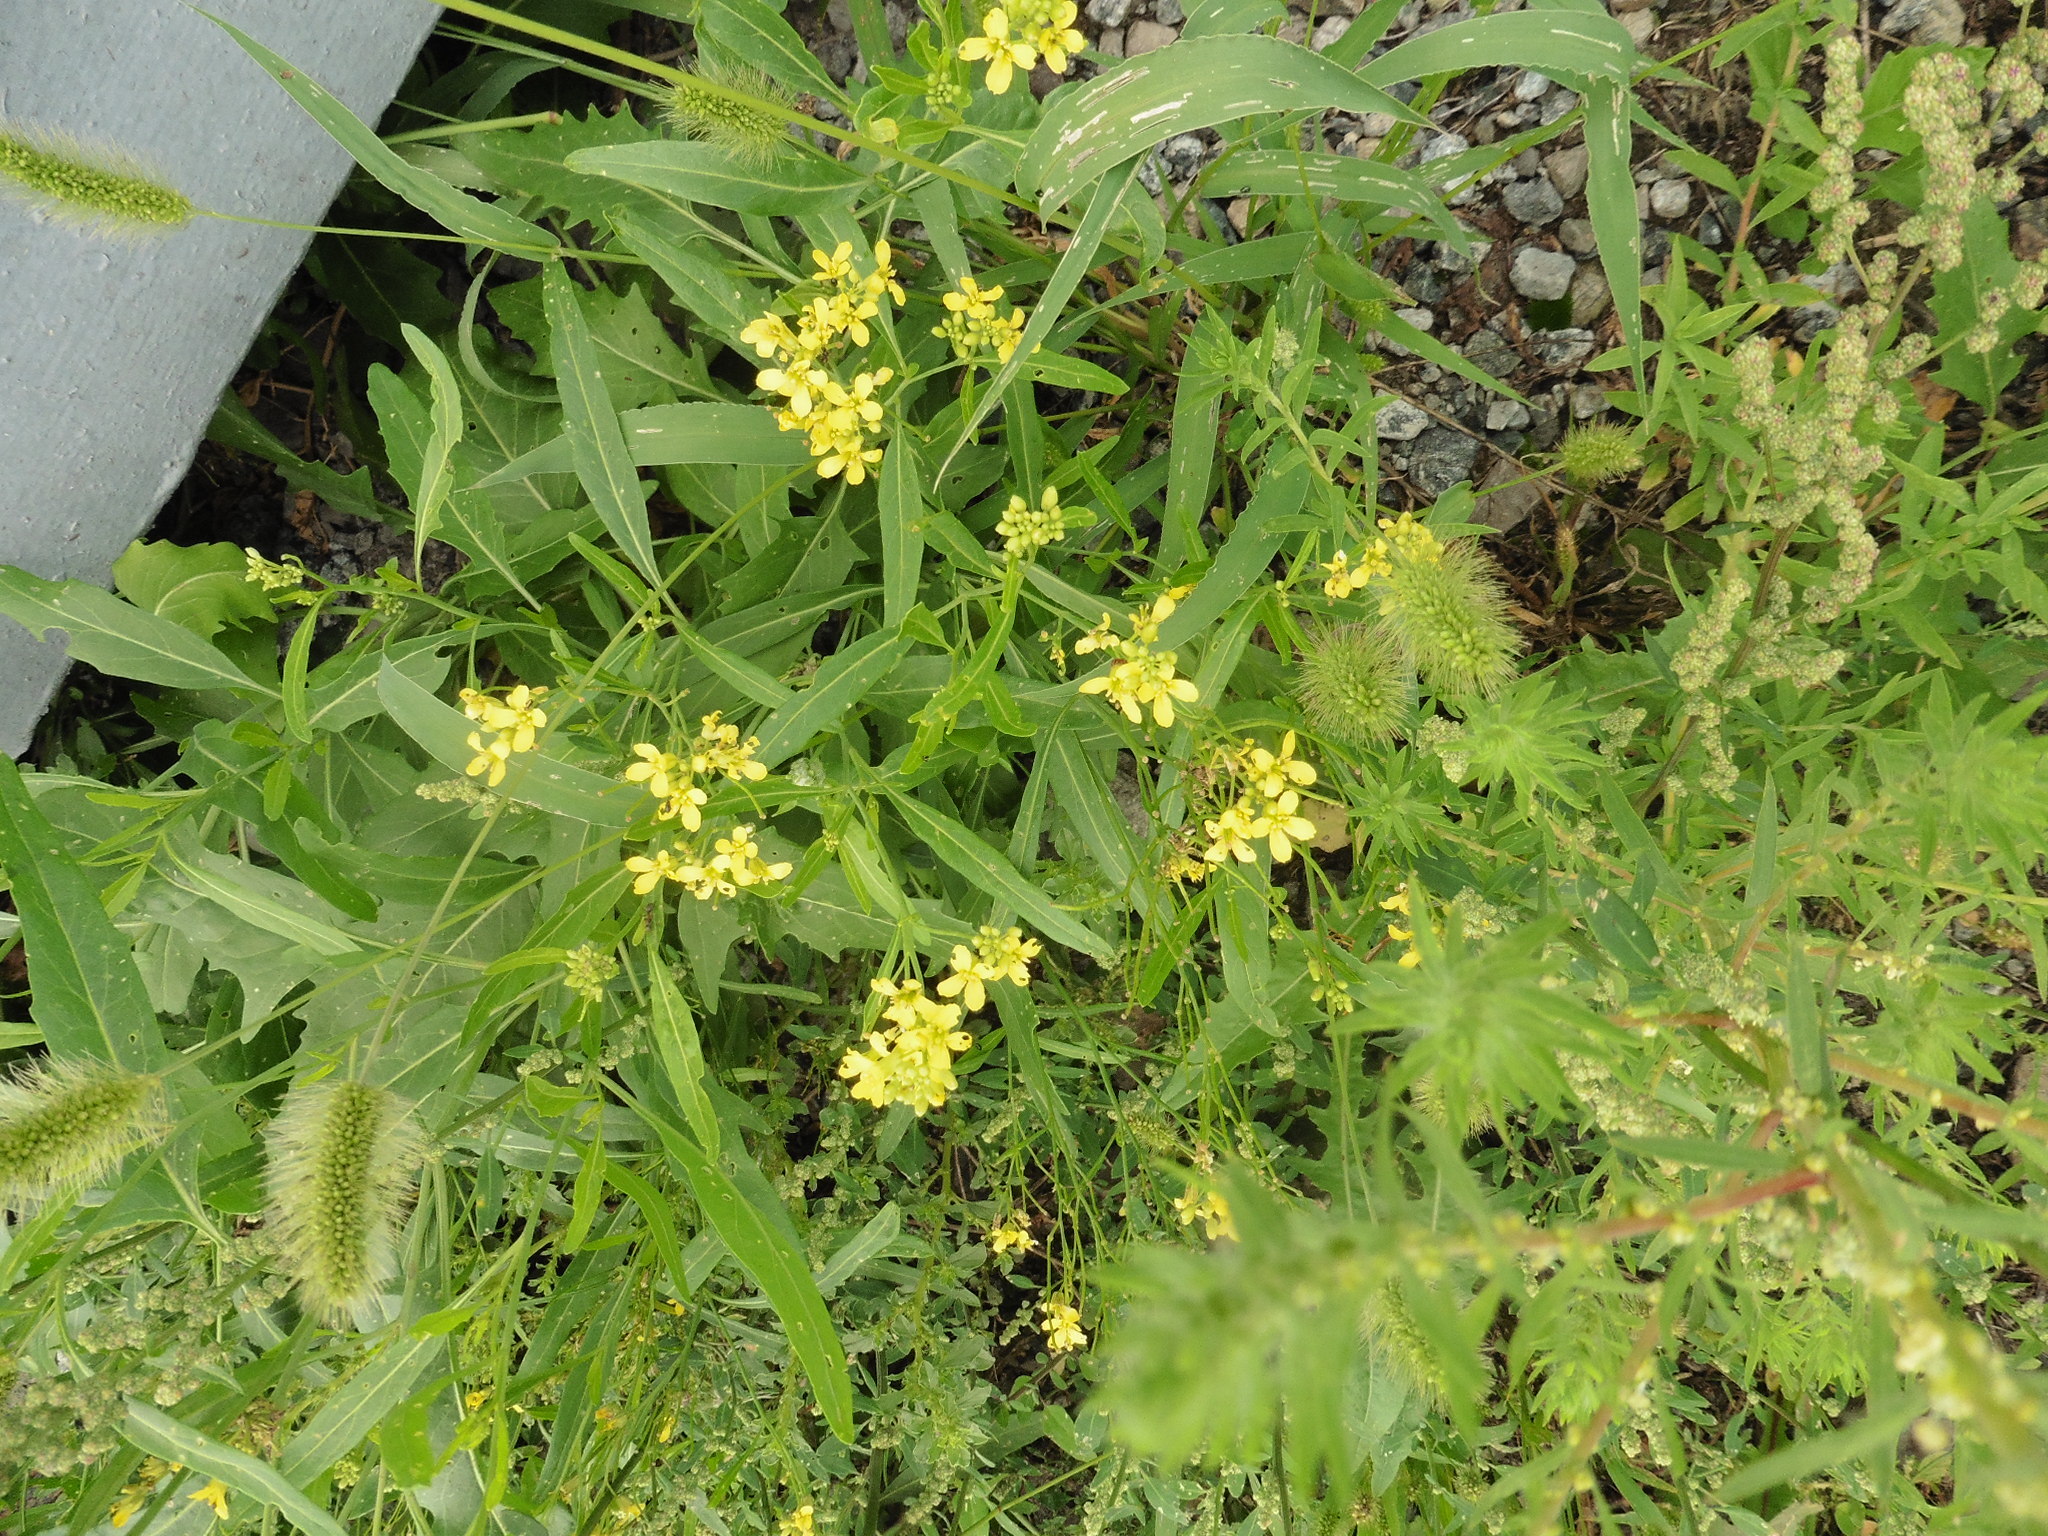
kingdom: Plantae
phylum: Tracheophyta
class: Magnoliopsida
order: Brassicales
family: Brassicaceae
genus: Sisymbrium
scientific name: Sisymbrium volgense
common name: Russian mustard
